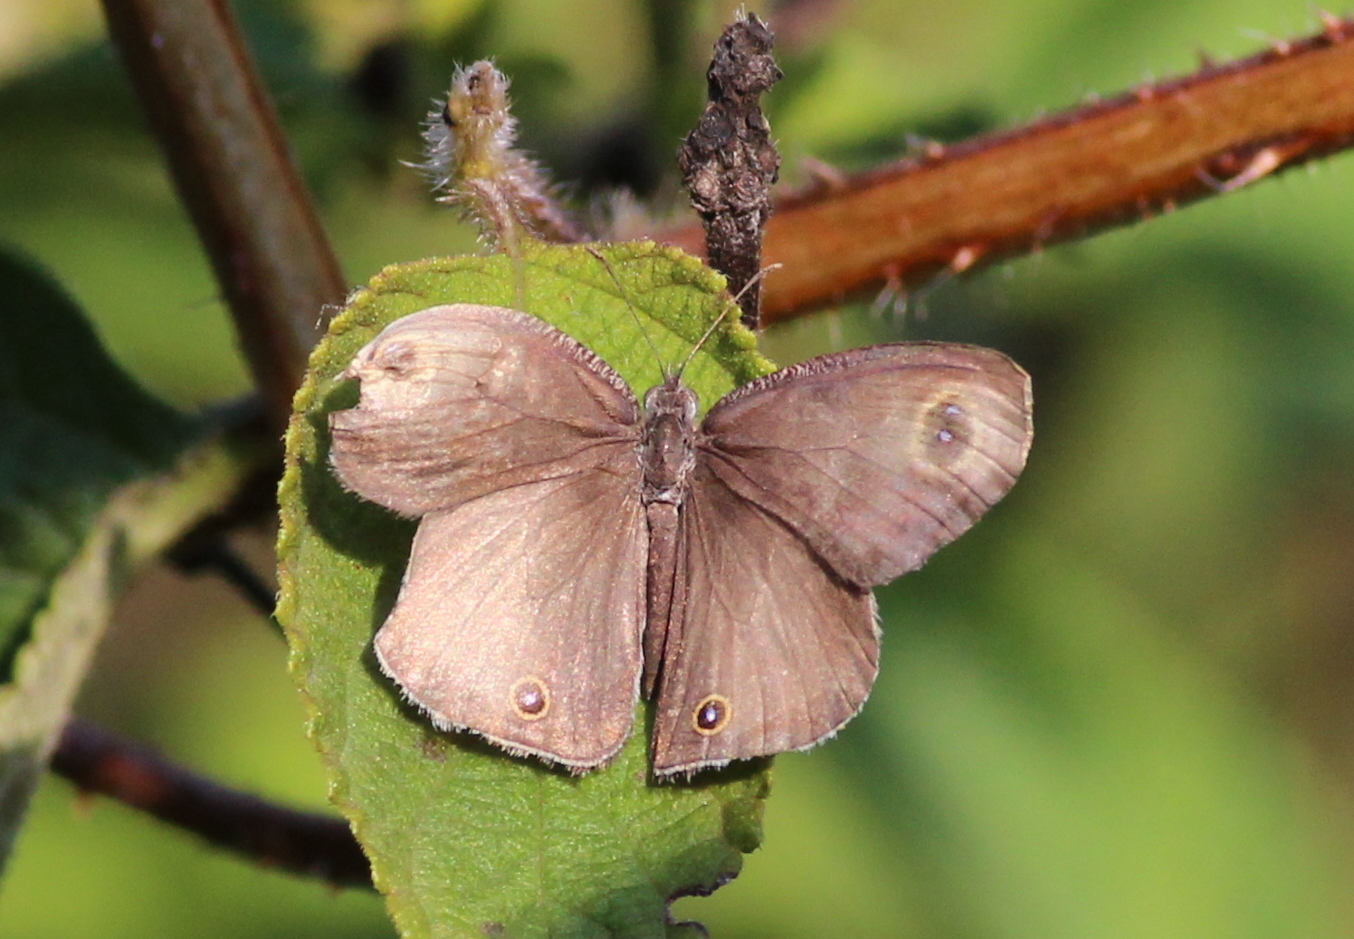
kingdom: Animalia
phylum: Arthropoda
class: Insecta
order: Lepidoptera
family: Nymphalidae
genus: Ypthima
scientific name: Ypthima asterope
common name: African ringlet
